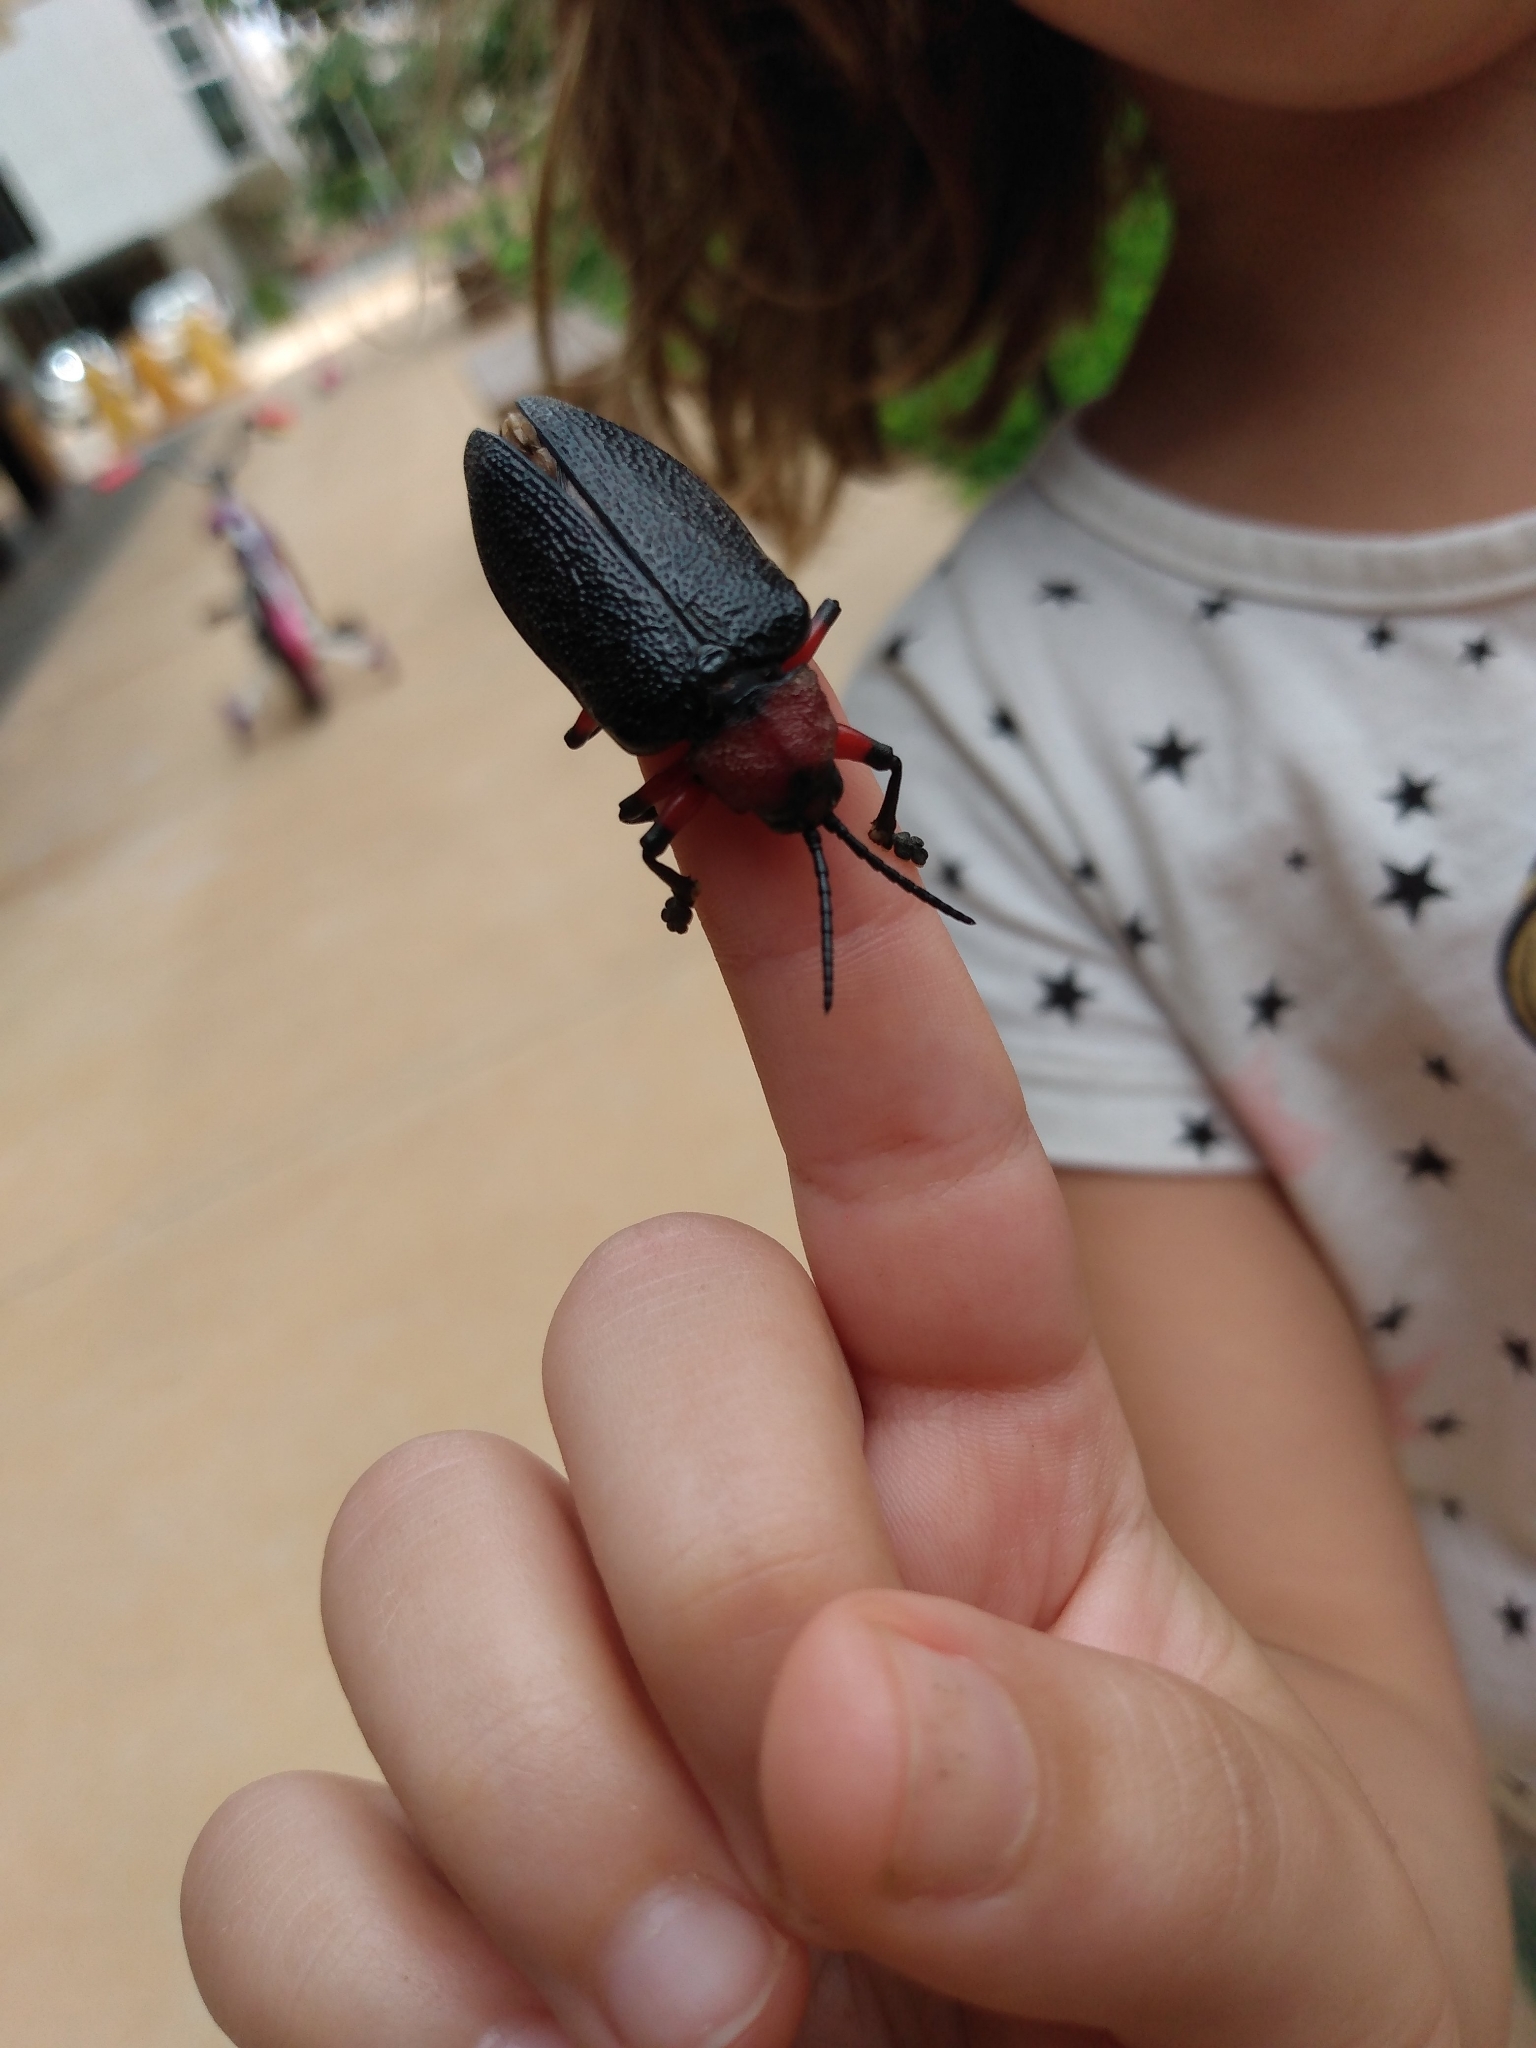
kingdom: Animalia
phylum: Arthropoda
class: Insecta
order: Coleoptera
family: Chrysomelidae
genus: Coraliomela
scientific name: Coraliomela brunnea
